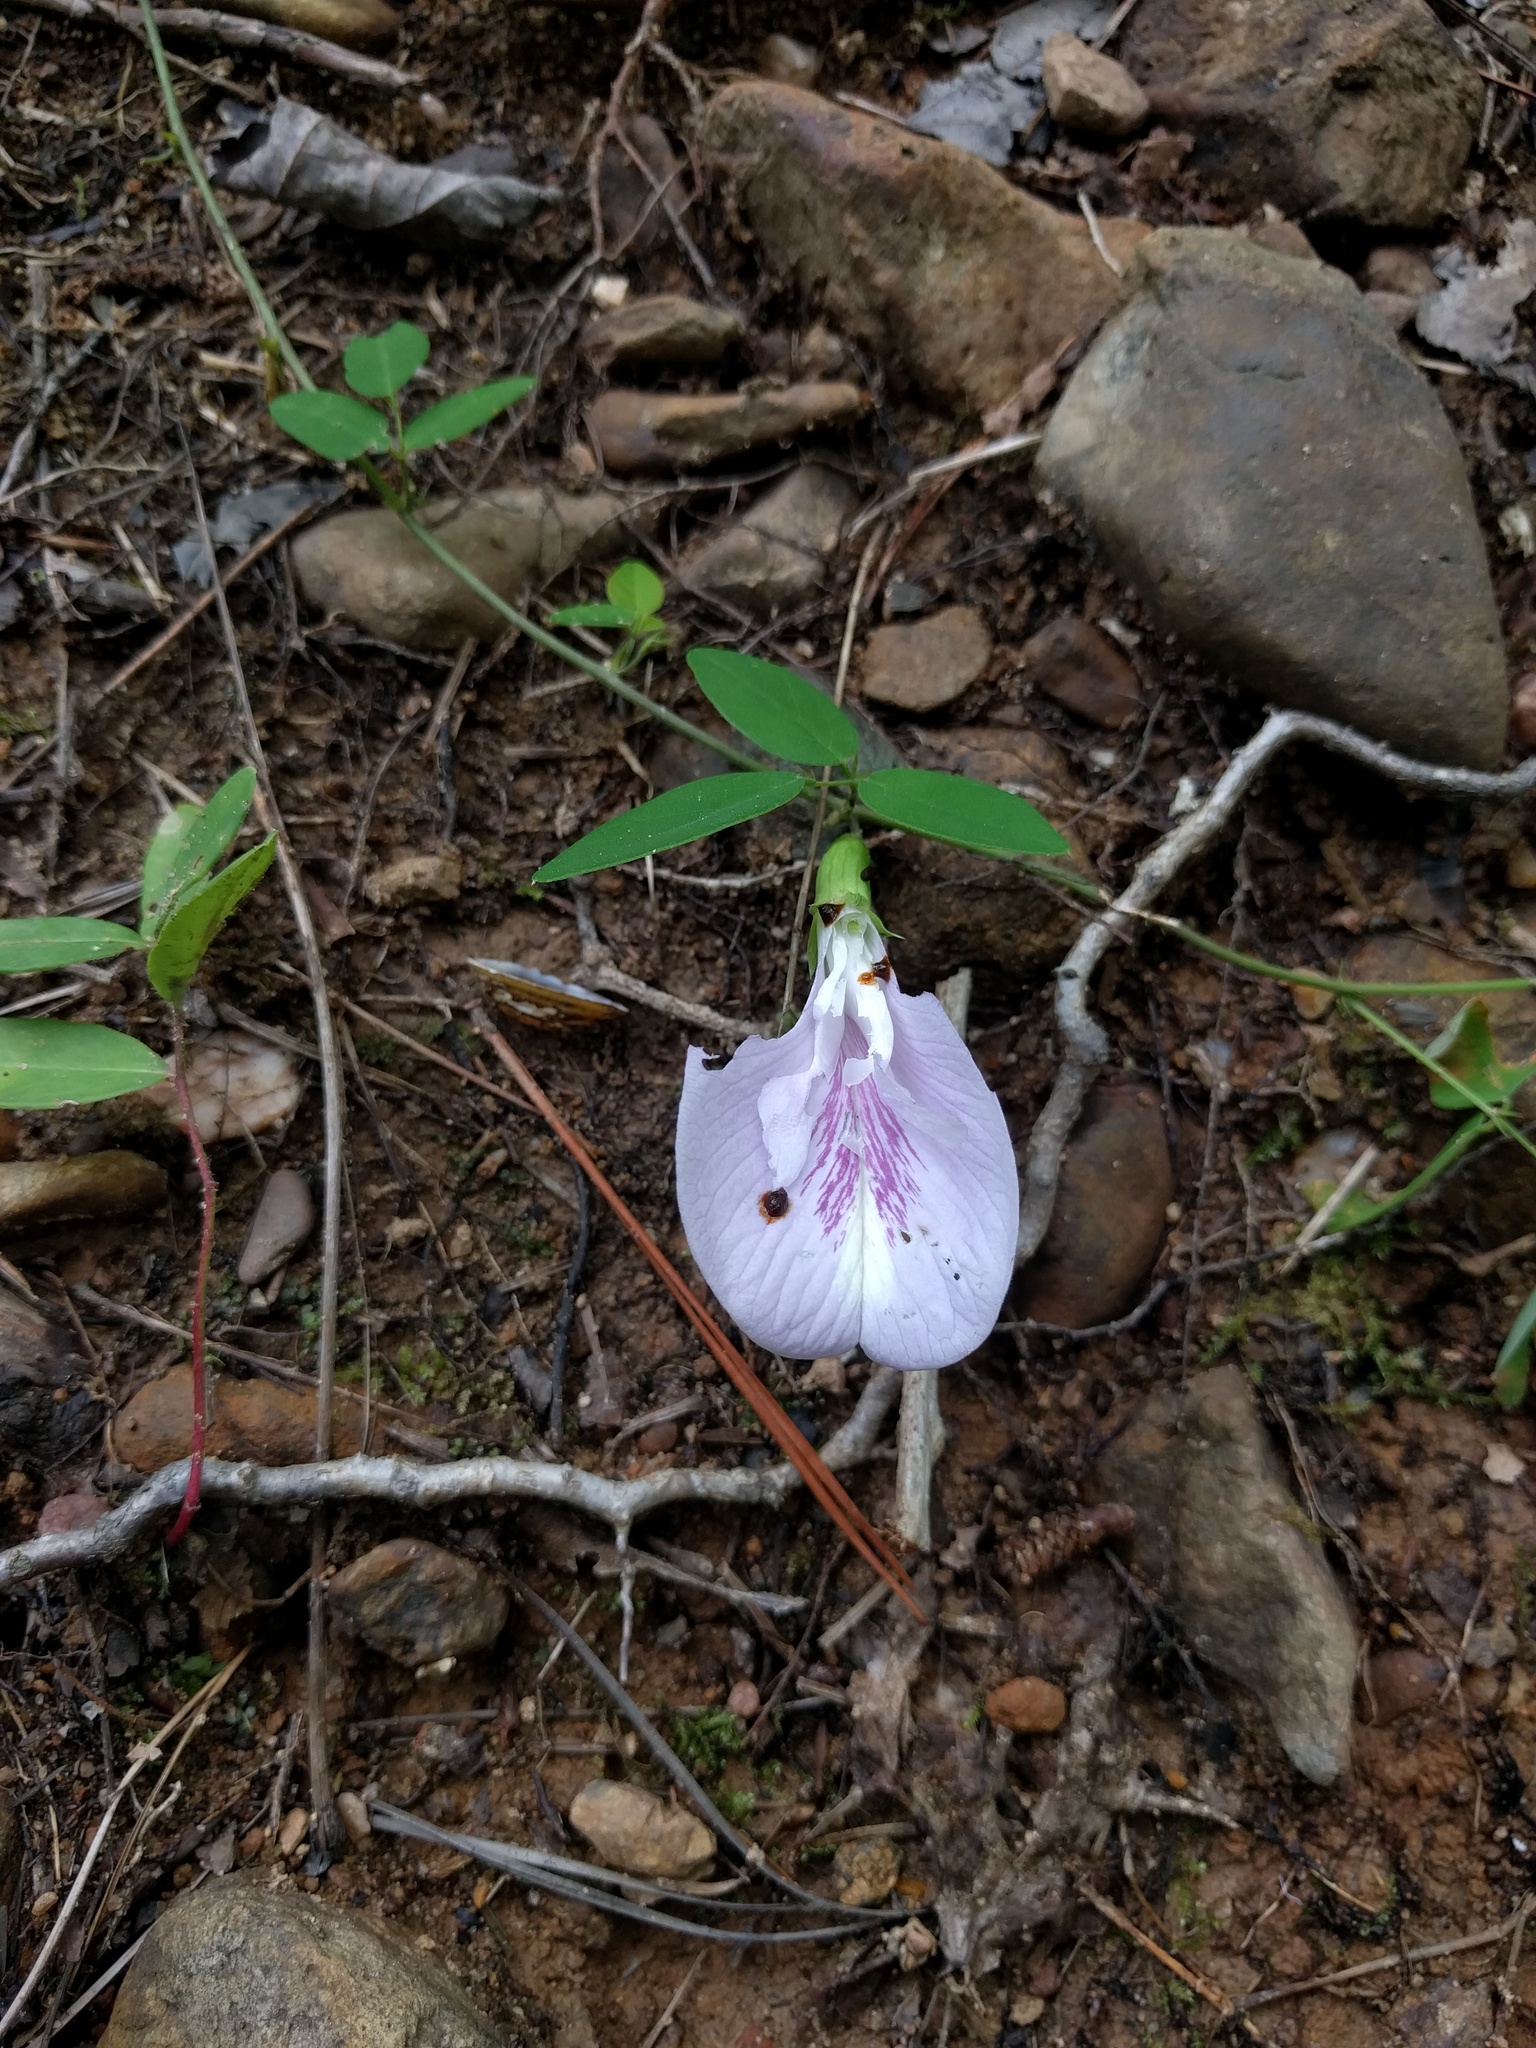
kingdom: Plantae
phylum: Tracheophyta
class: Magnoliopsida
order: Fabales
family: Fabaceae
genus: Clitoria
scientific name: Clitoria mariana
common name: Butterfly-pea
